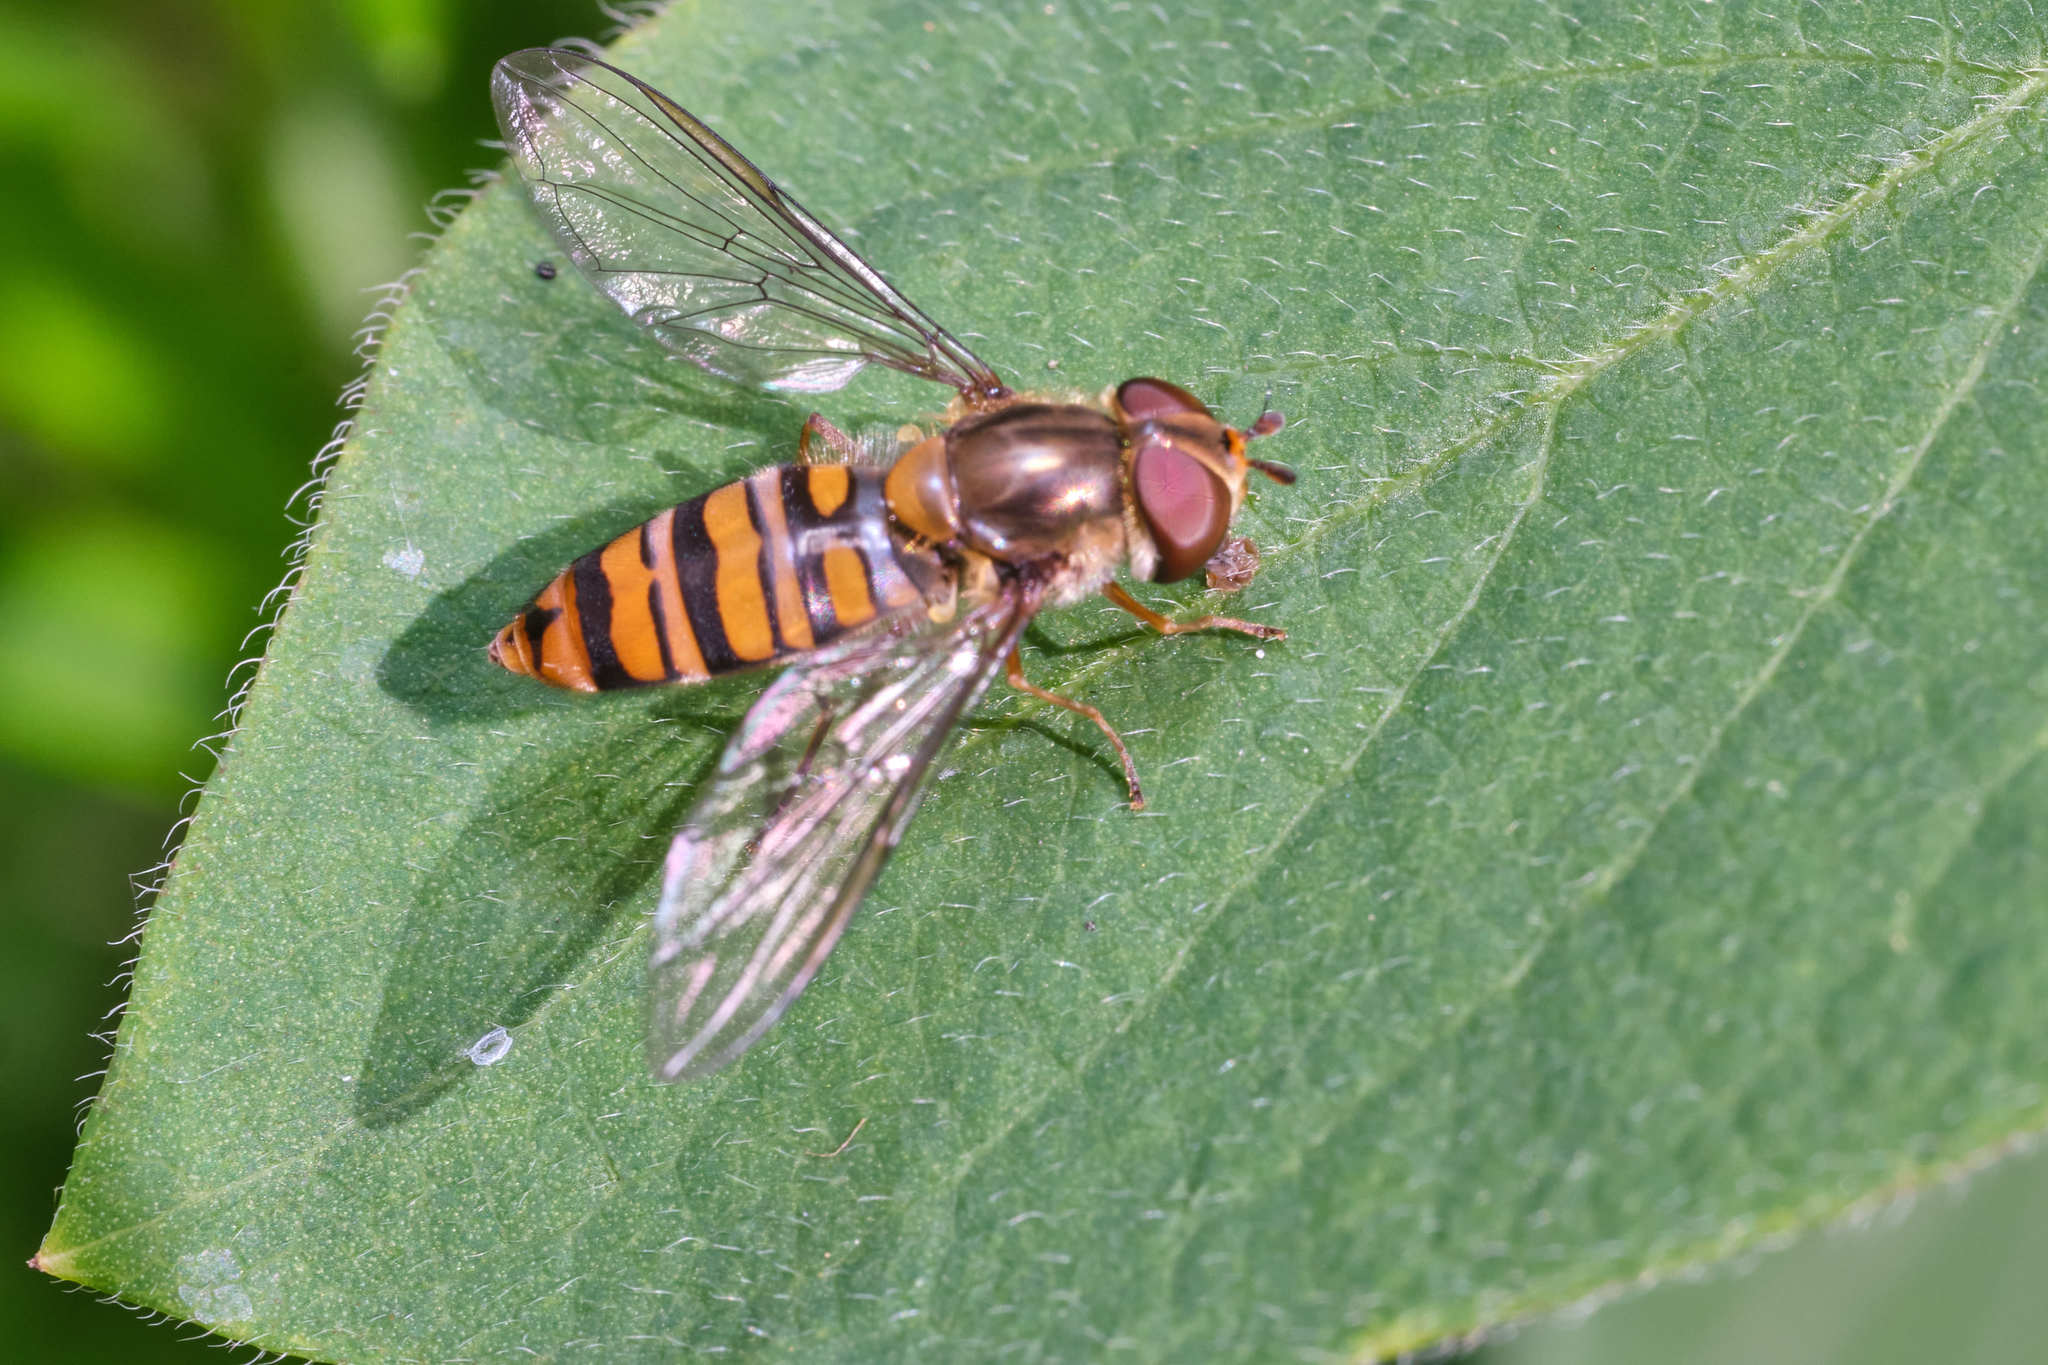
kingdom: Animalia
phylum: Arthropoda
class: Insecta
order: Diptera
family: Syrphidae
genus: Episyrphus
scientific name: Episyrphus balteatus
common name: Marmalade hoverfly
